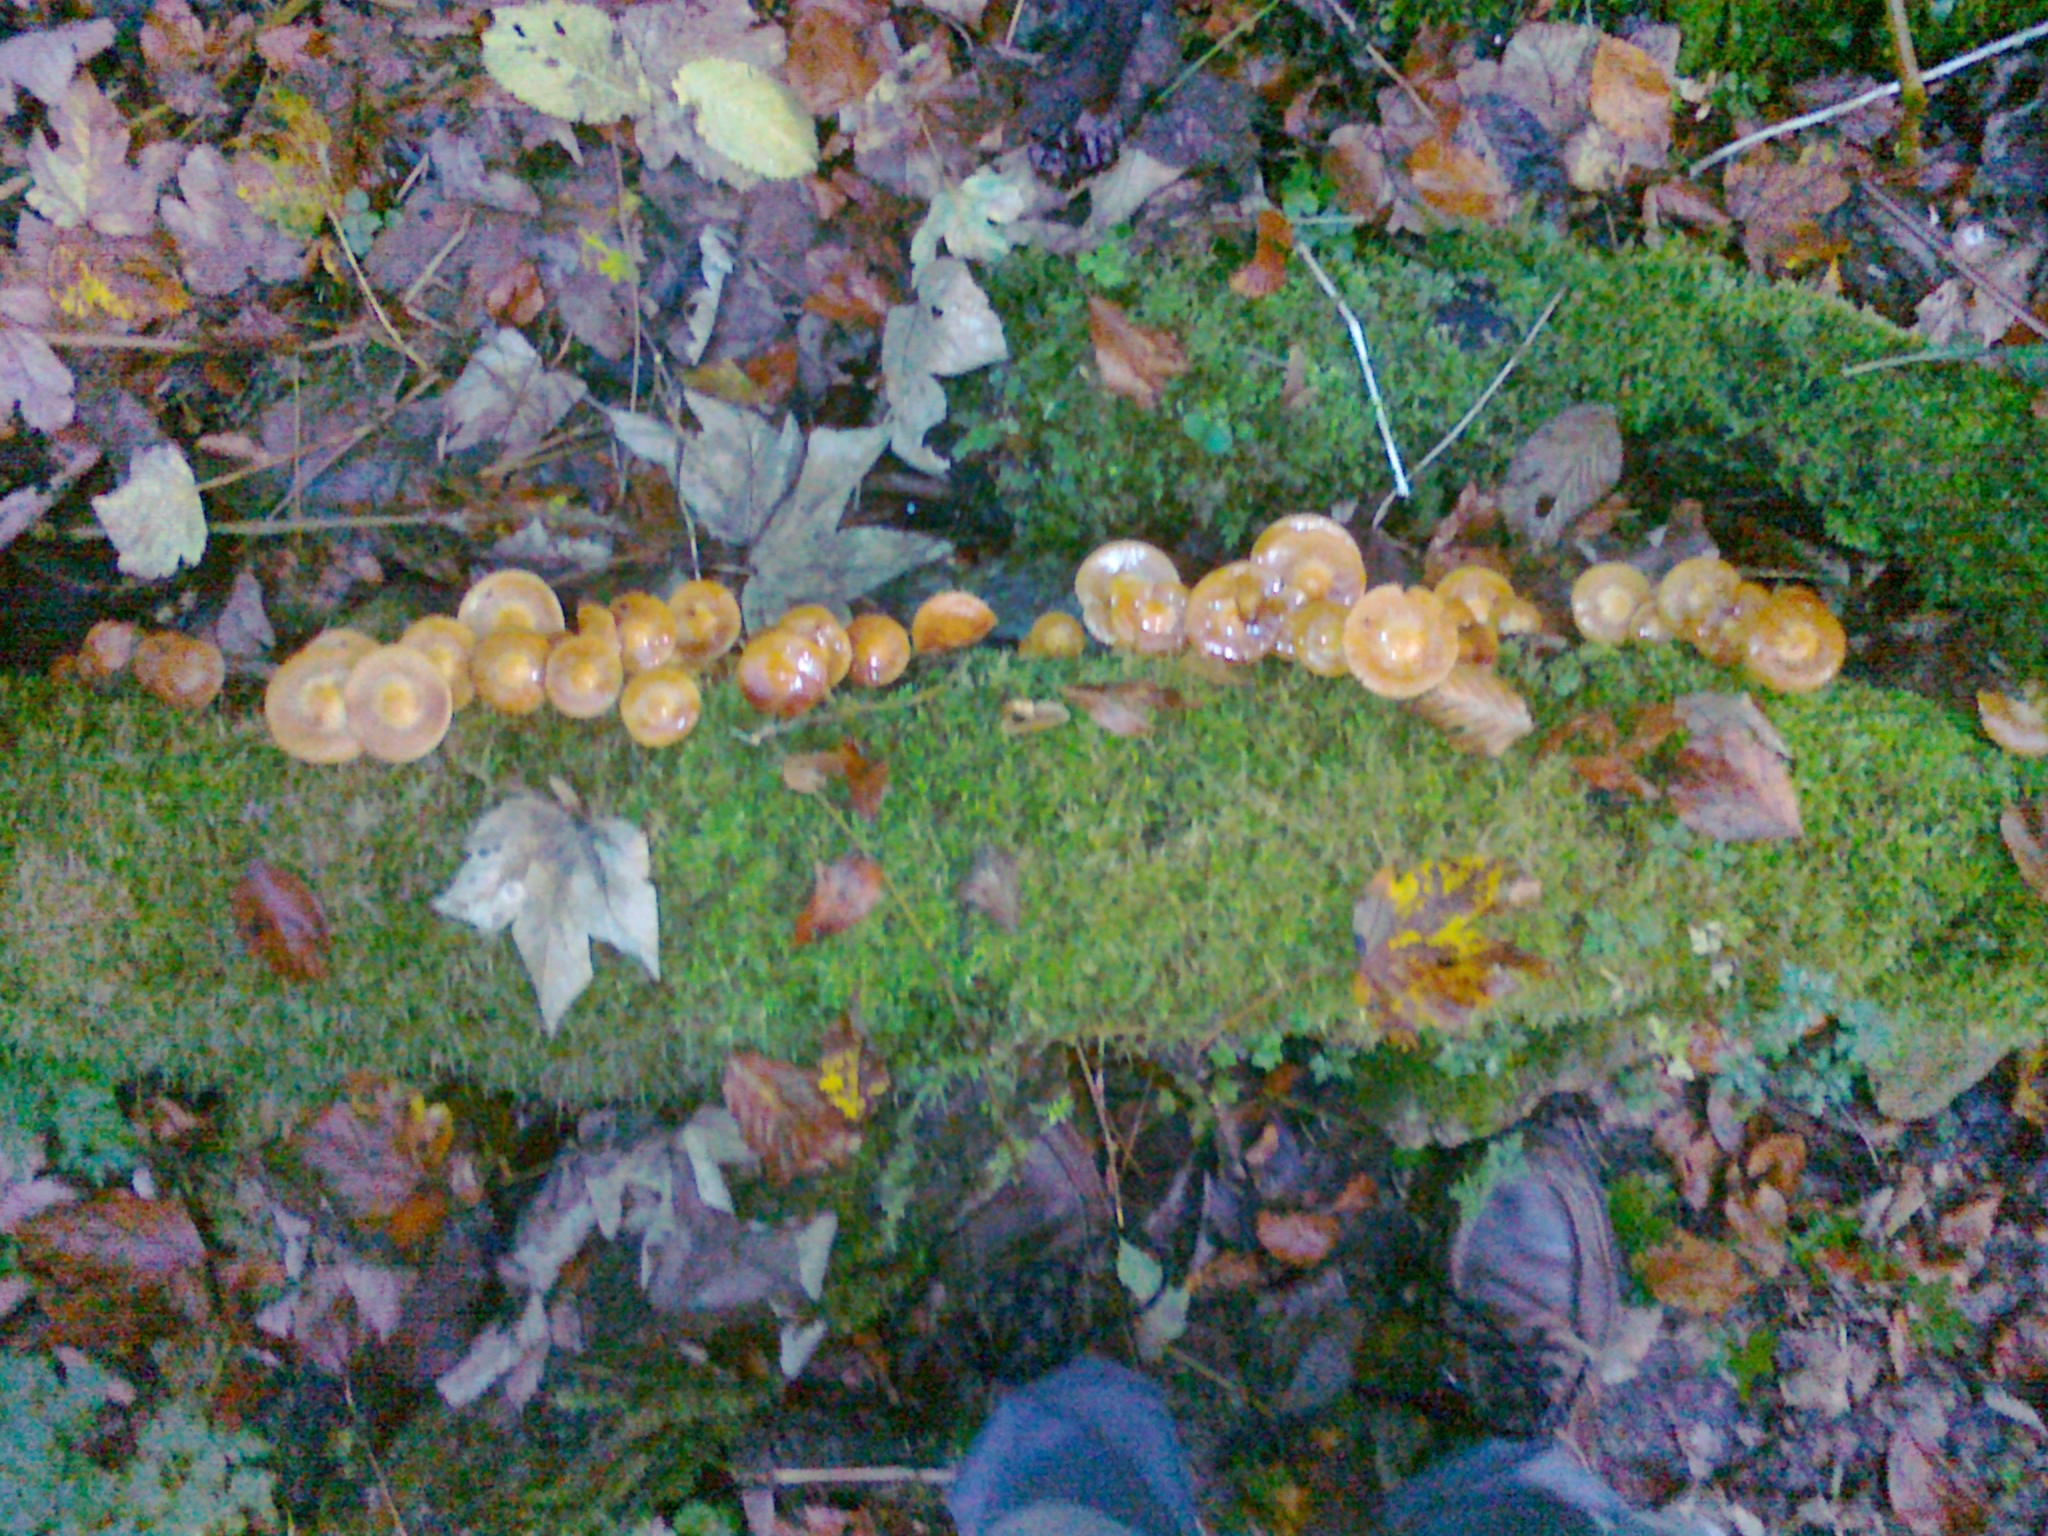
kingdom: Fungi
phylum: Basidiomycota
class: Agaricomycetes
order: Agaricales
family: Strophariaceae
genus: Kuehneromyces
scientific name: Kuehneromyces mutabilis
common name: Sheathed woodtuft
